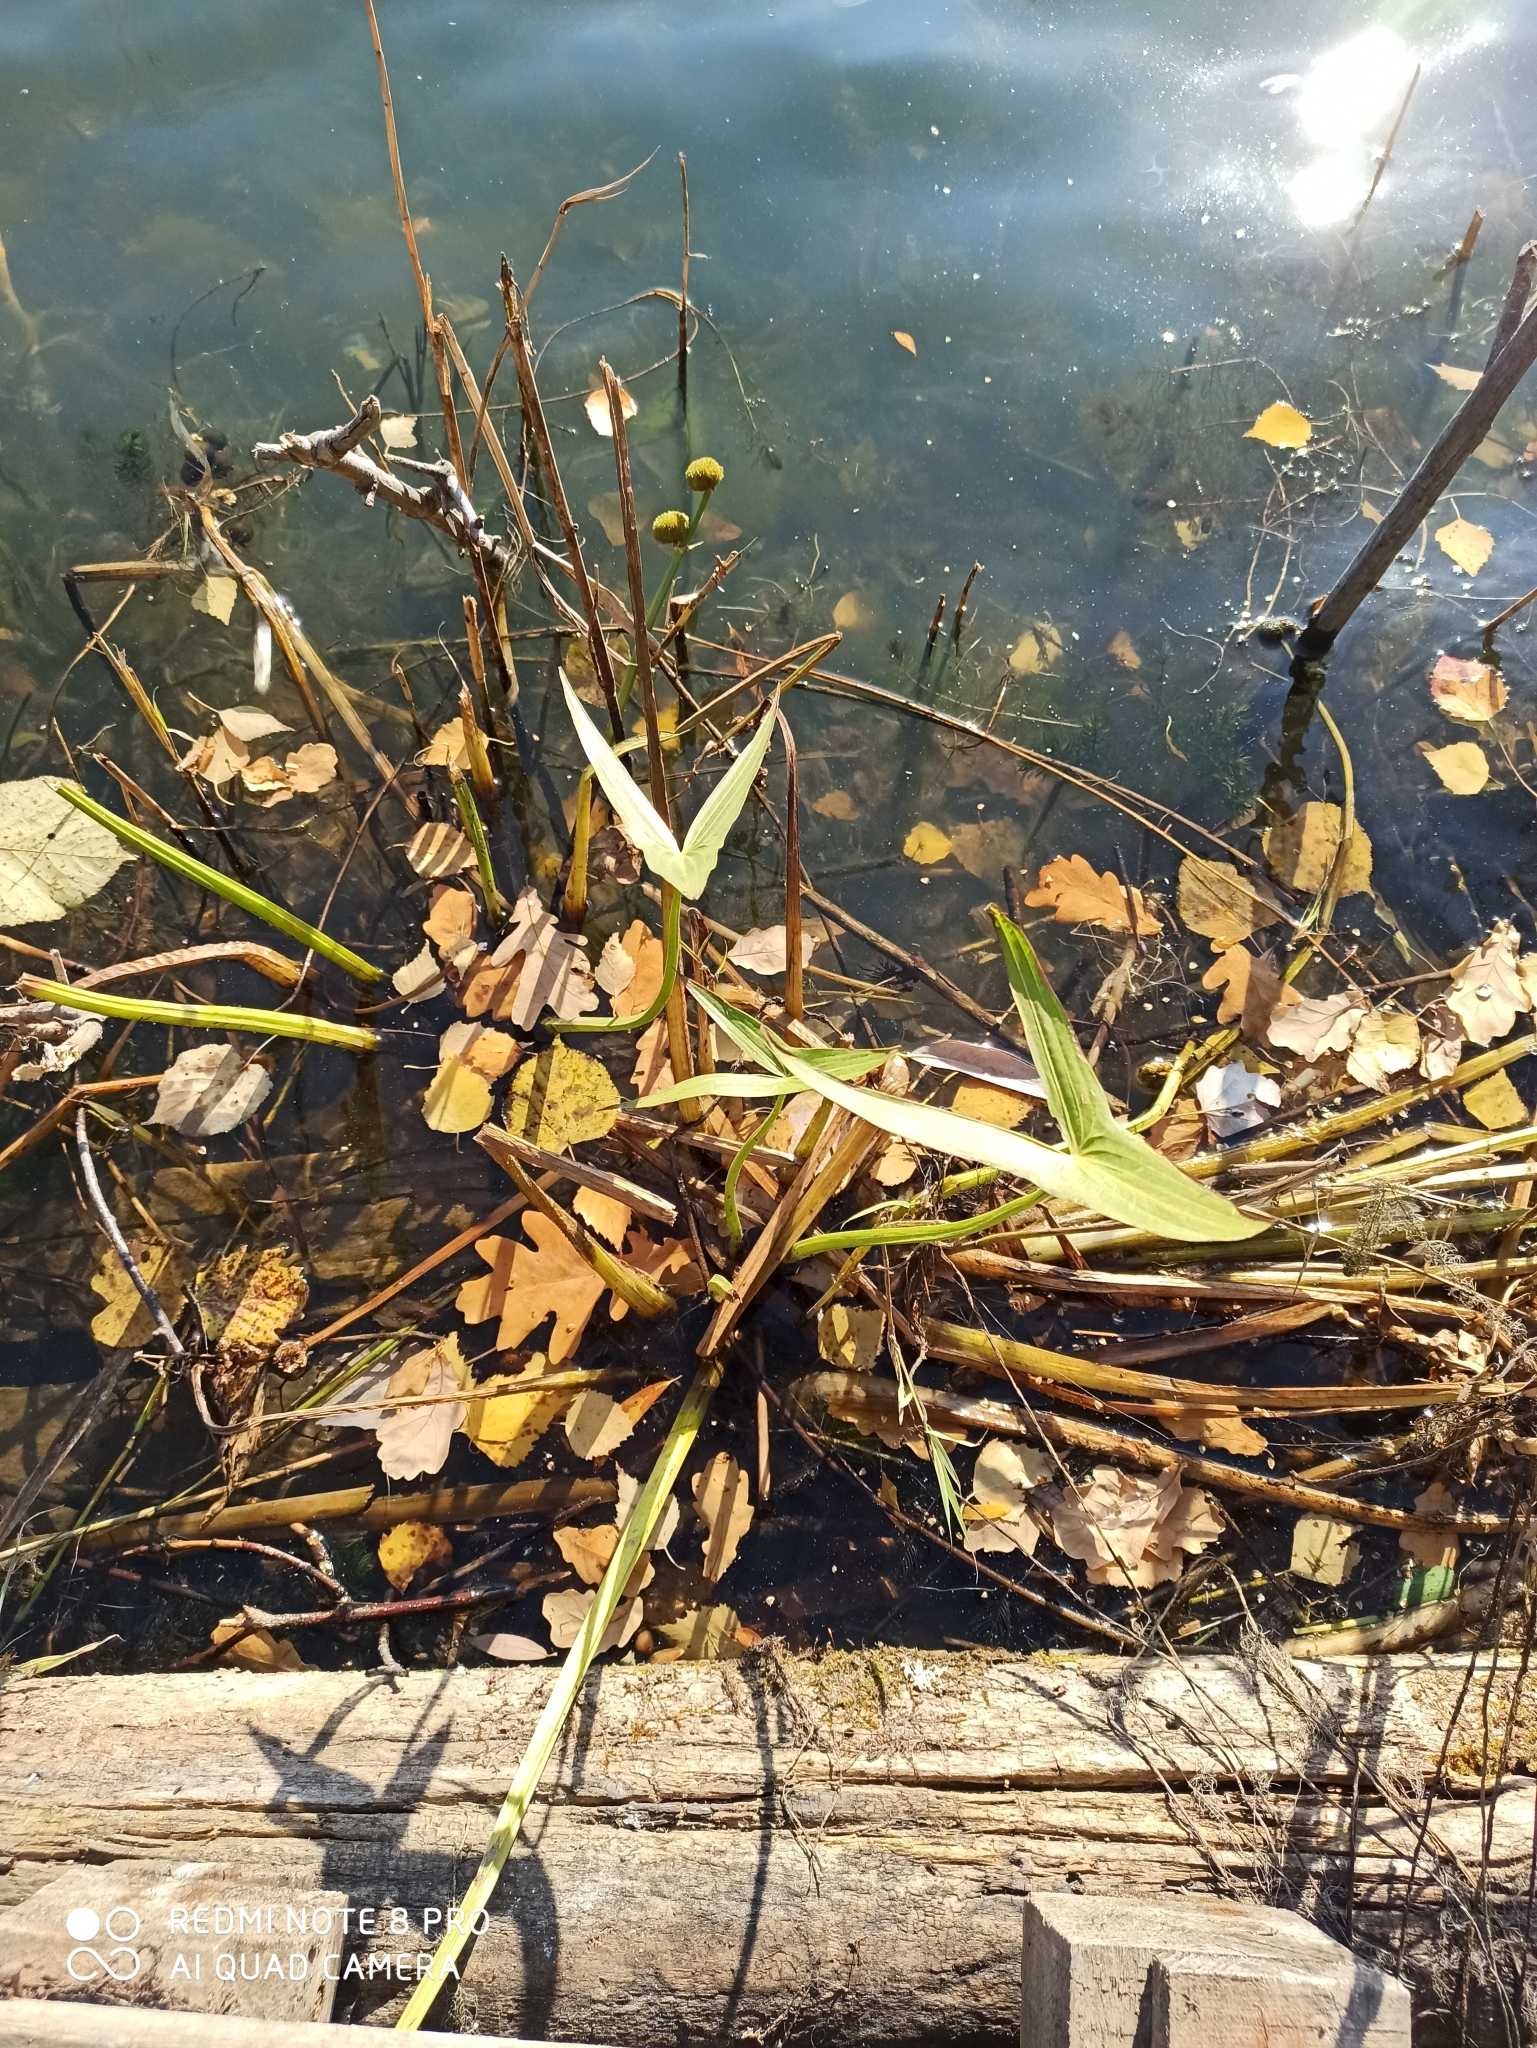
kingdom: Plantae
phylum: Tracheophyta
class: Liliopsida
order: Alismatales
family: Alismataceae
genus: Sagittaria
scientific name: Sagittaria sagittifolia
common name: Arrowhead
